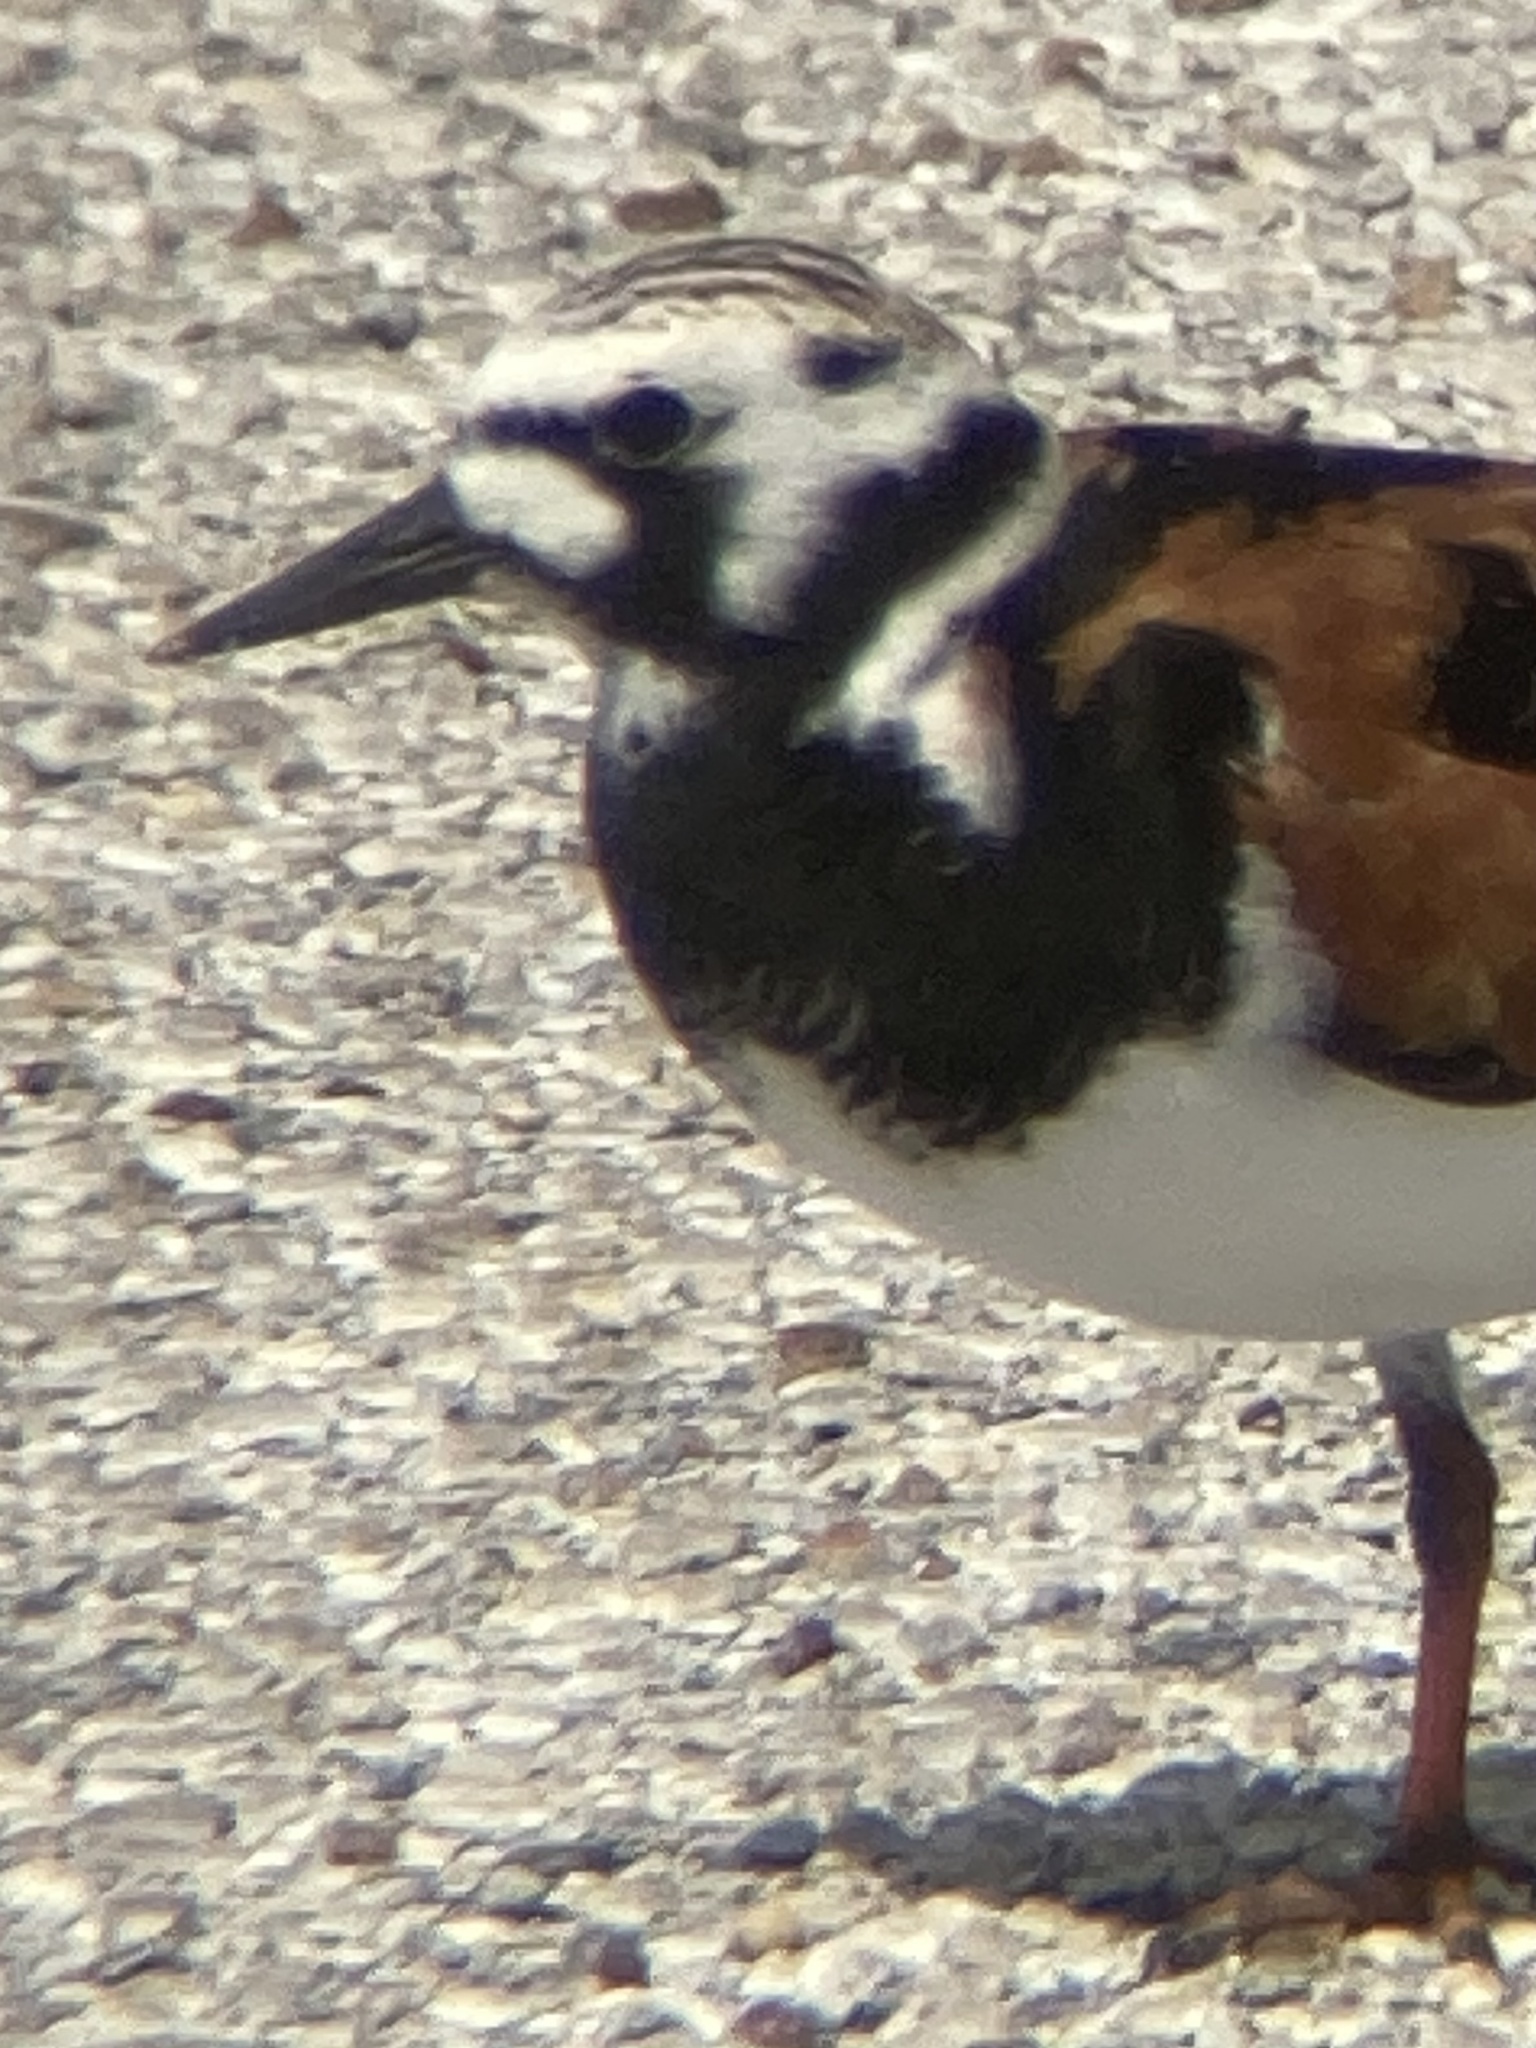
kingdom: Animalia
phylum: Chordata
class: Aves
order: Charadriiformes
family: Scolopacidae
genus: Arenaria
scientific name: Arenaria interpres
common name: Ruddy turnstone
